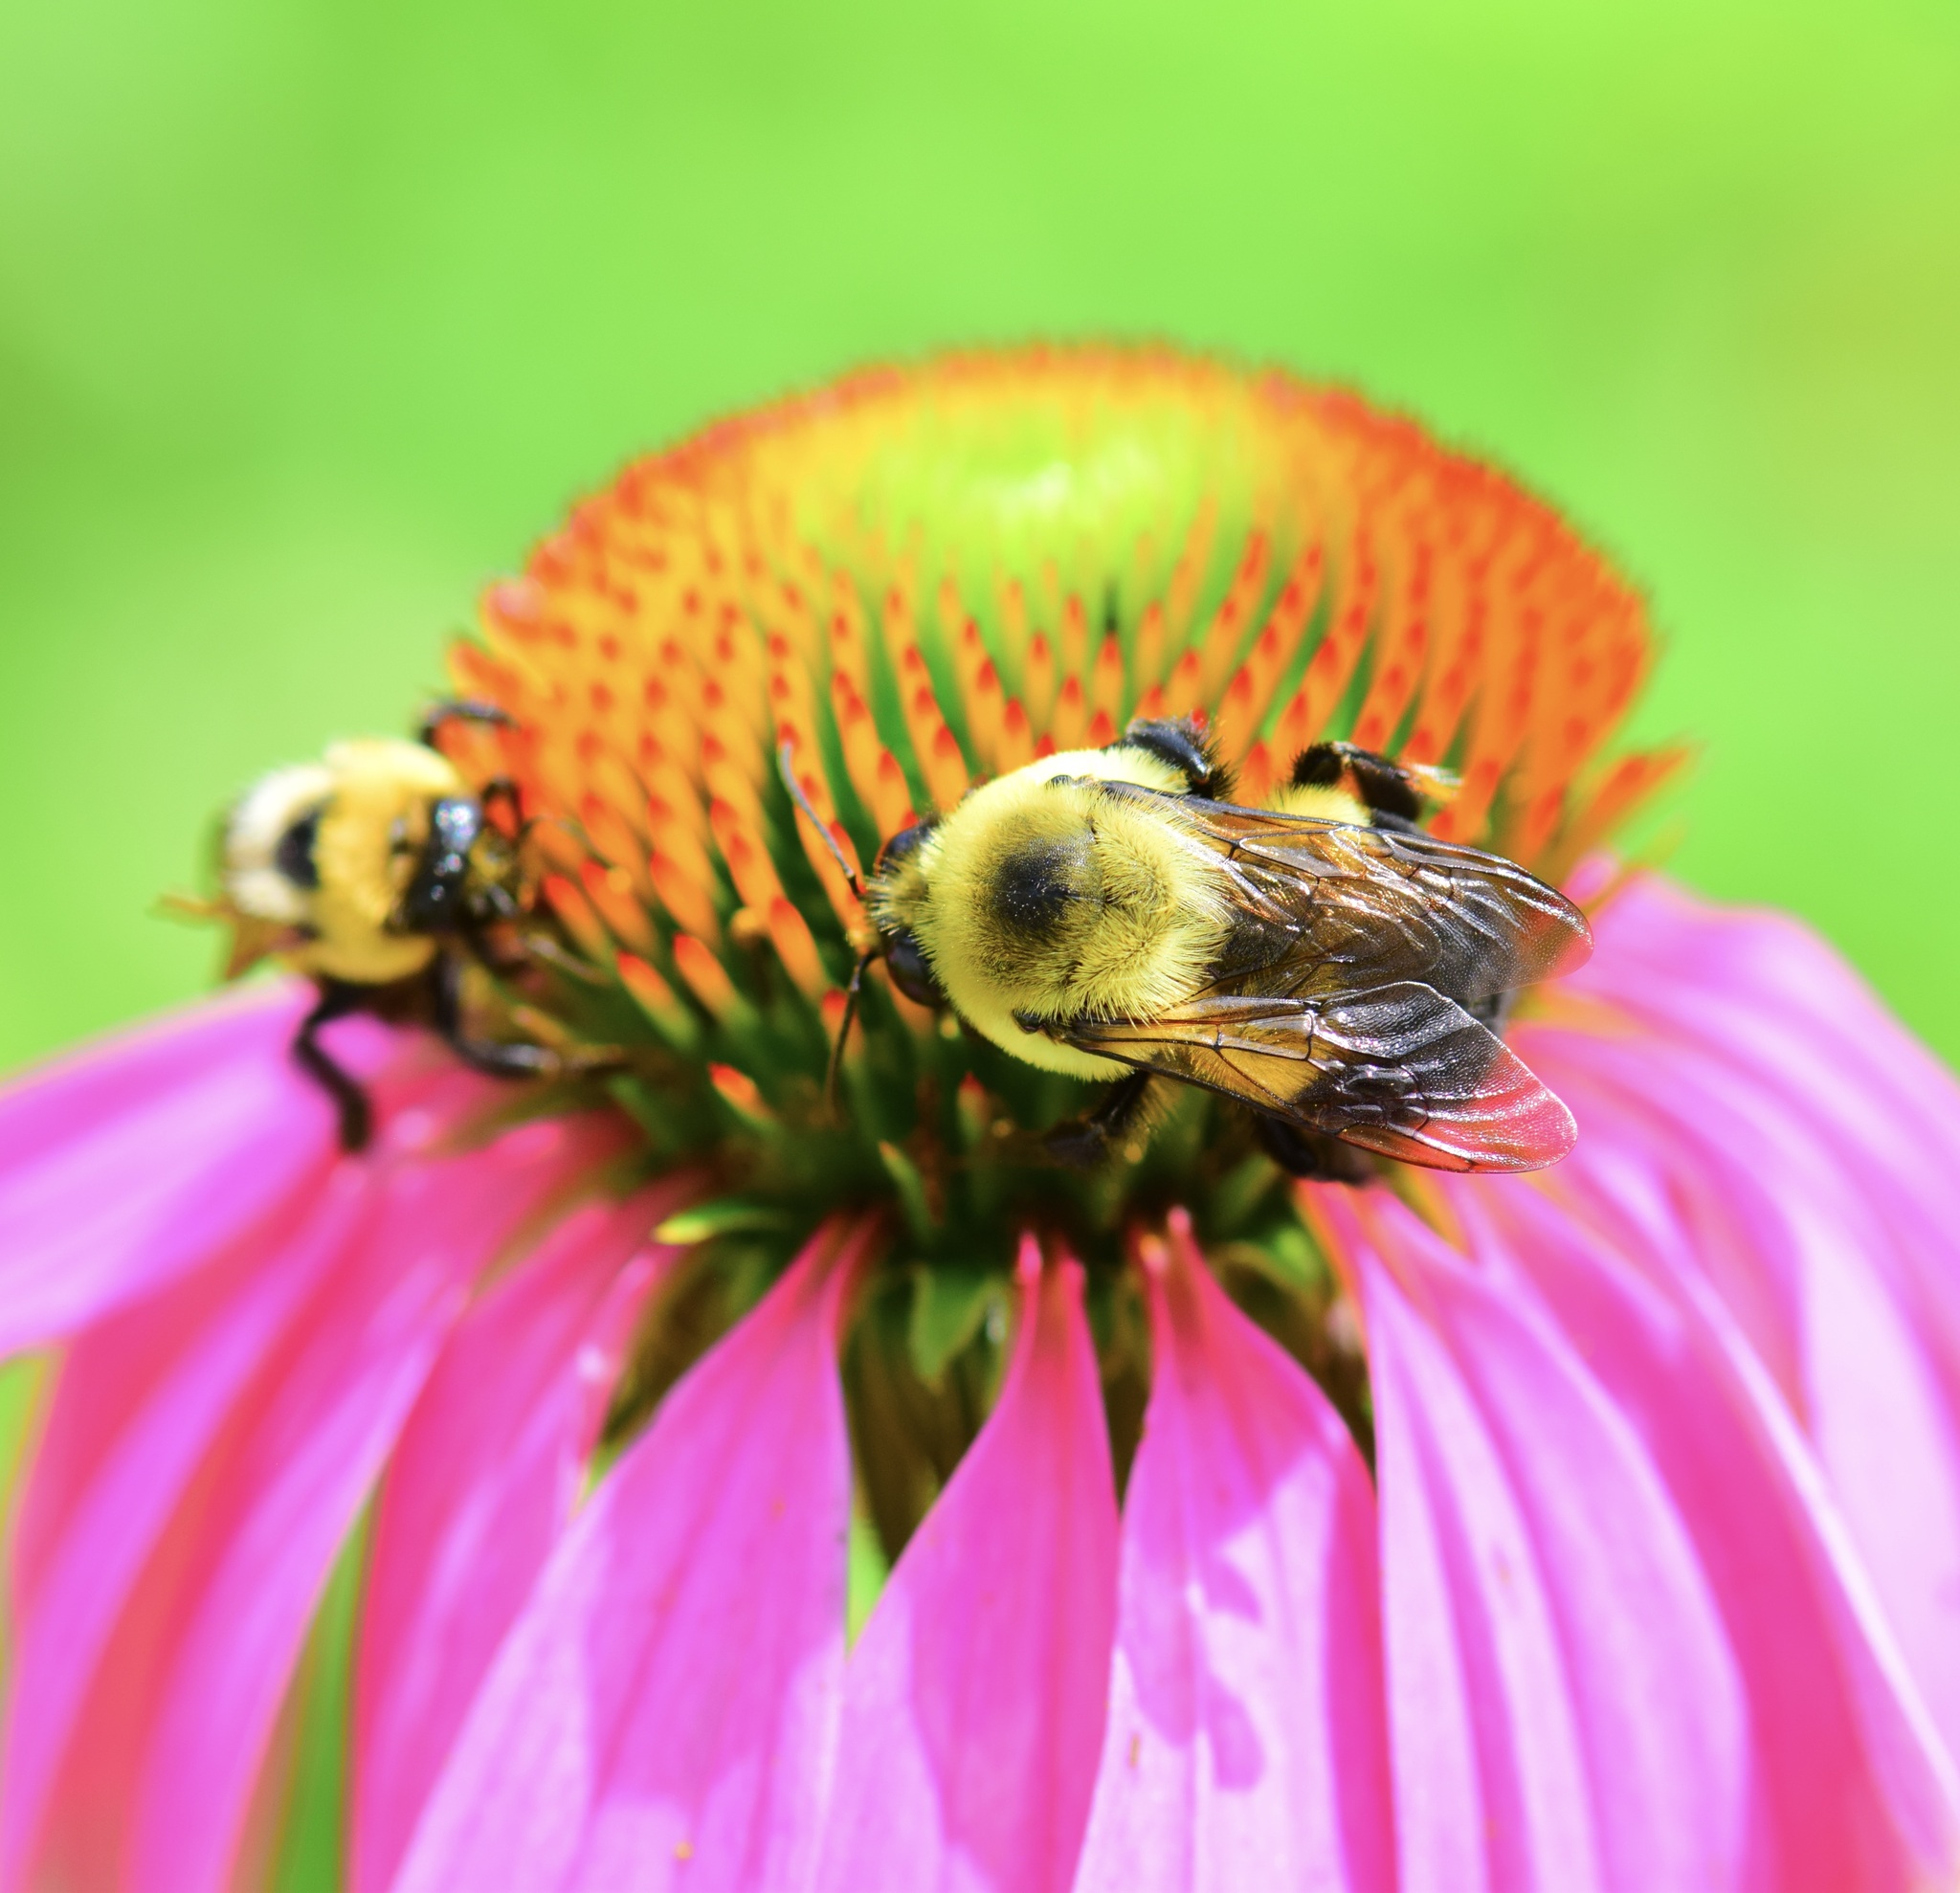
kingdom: Animalia
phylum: Arthropoda
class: Insecta
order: Hymenoptera
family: Apidae
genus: Bombus
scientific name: Bombus griseocollis
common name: Brown-belted bumble bee
